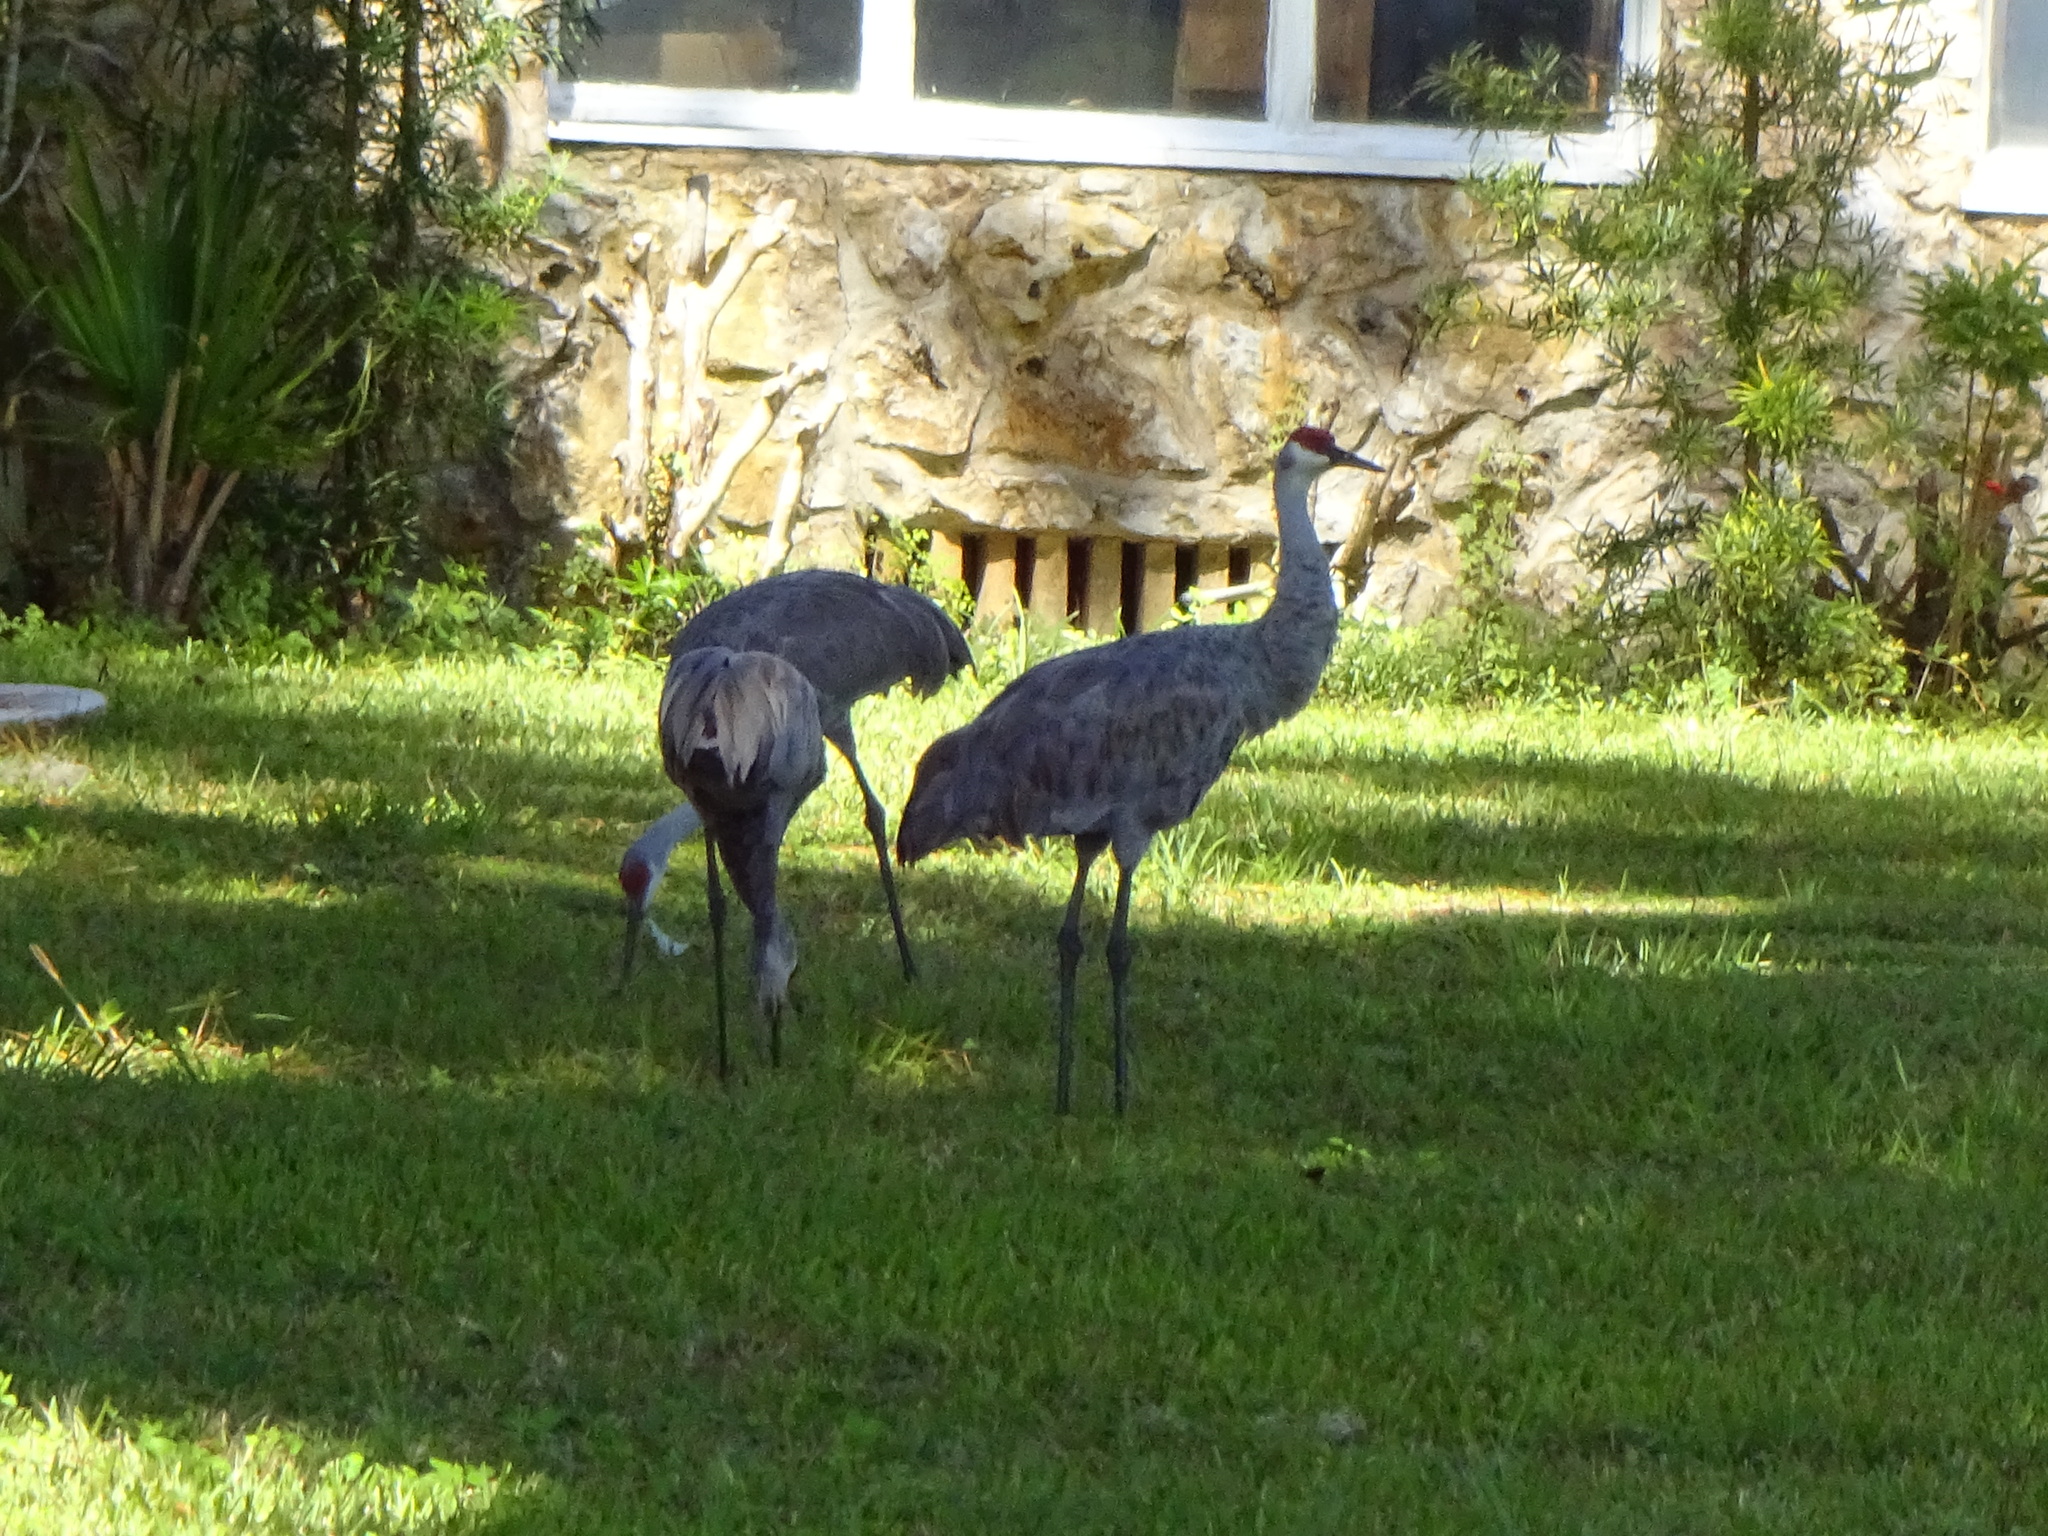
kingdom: Animalia
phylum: Chordata
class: Aves
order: Gruiformes
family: Gruidae
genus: Grus
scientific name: Grus canadensis
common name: Sandhill crane
